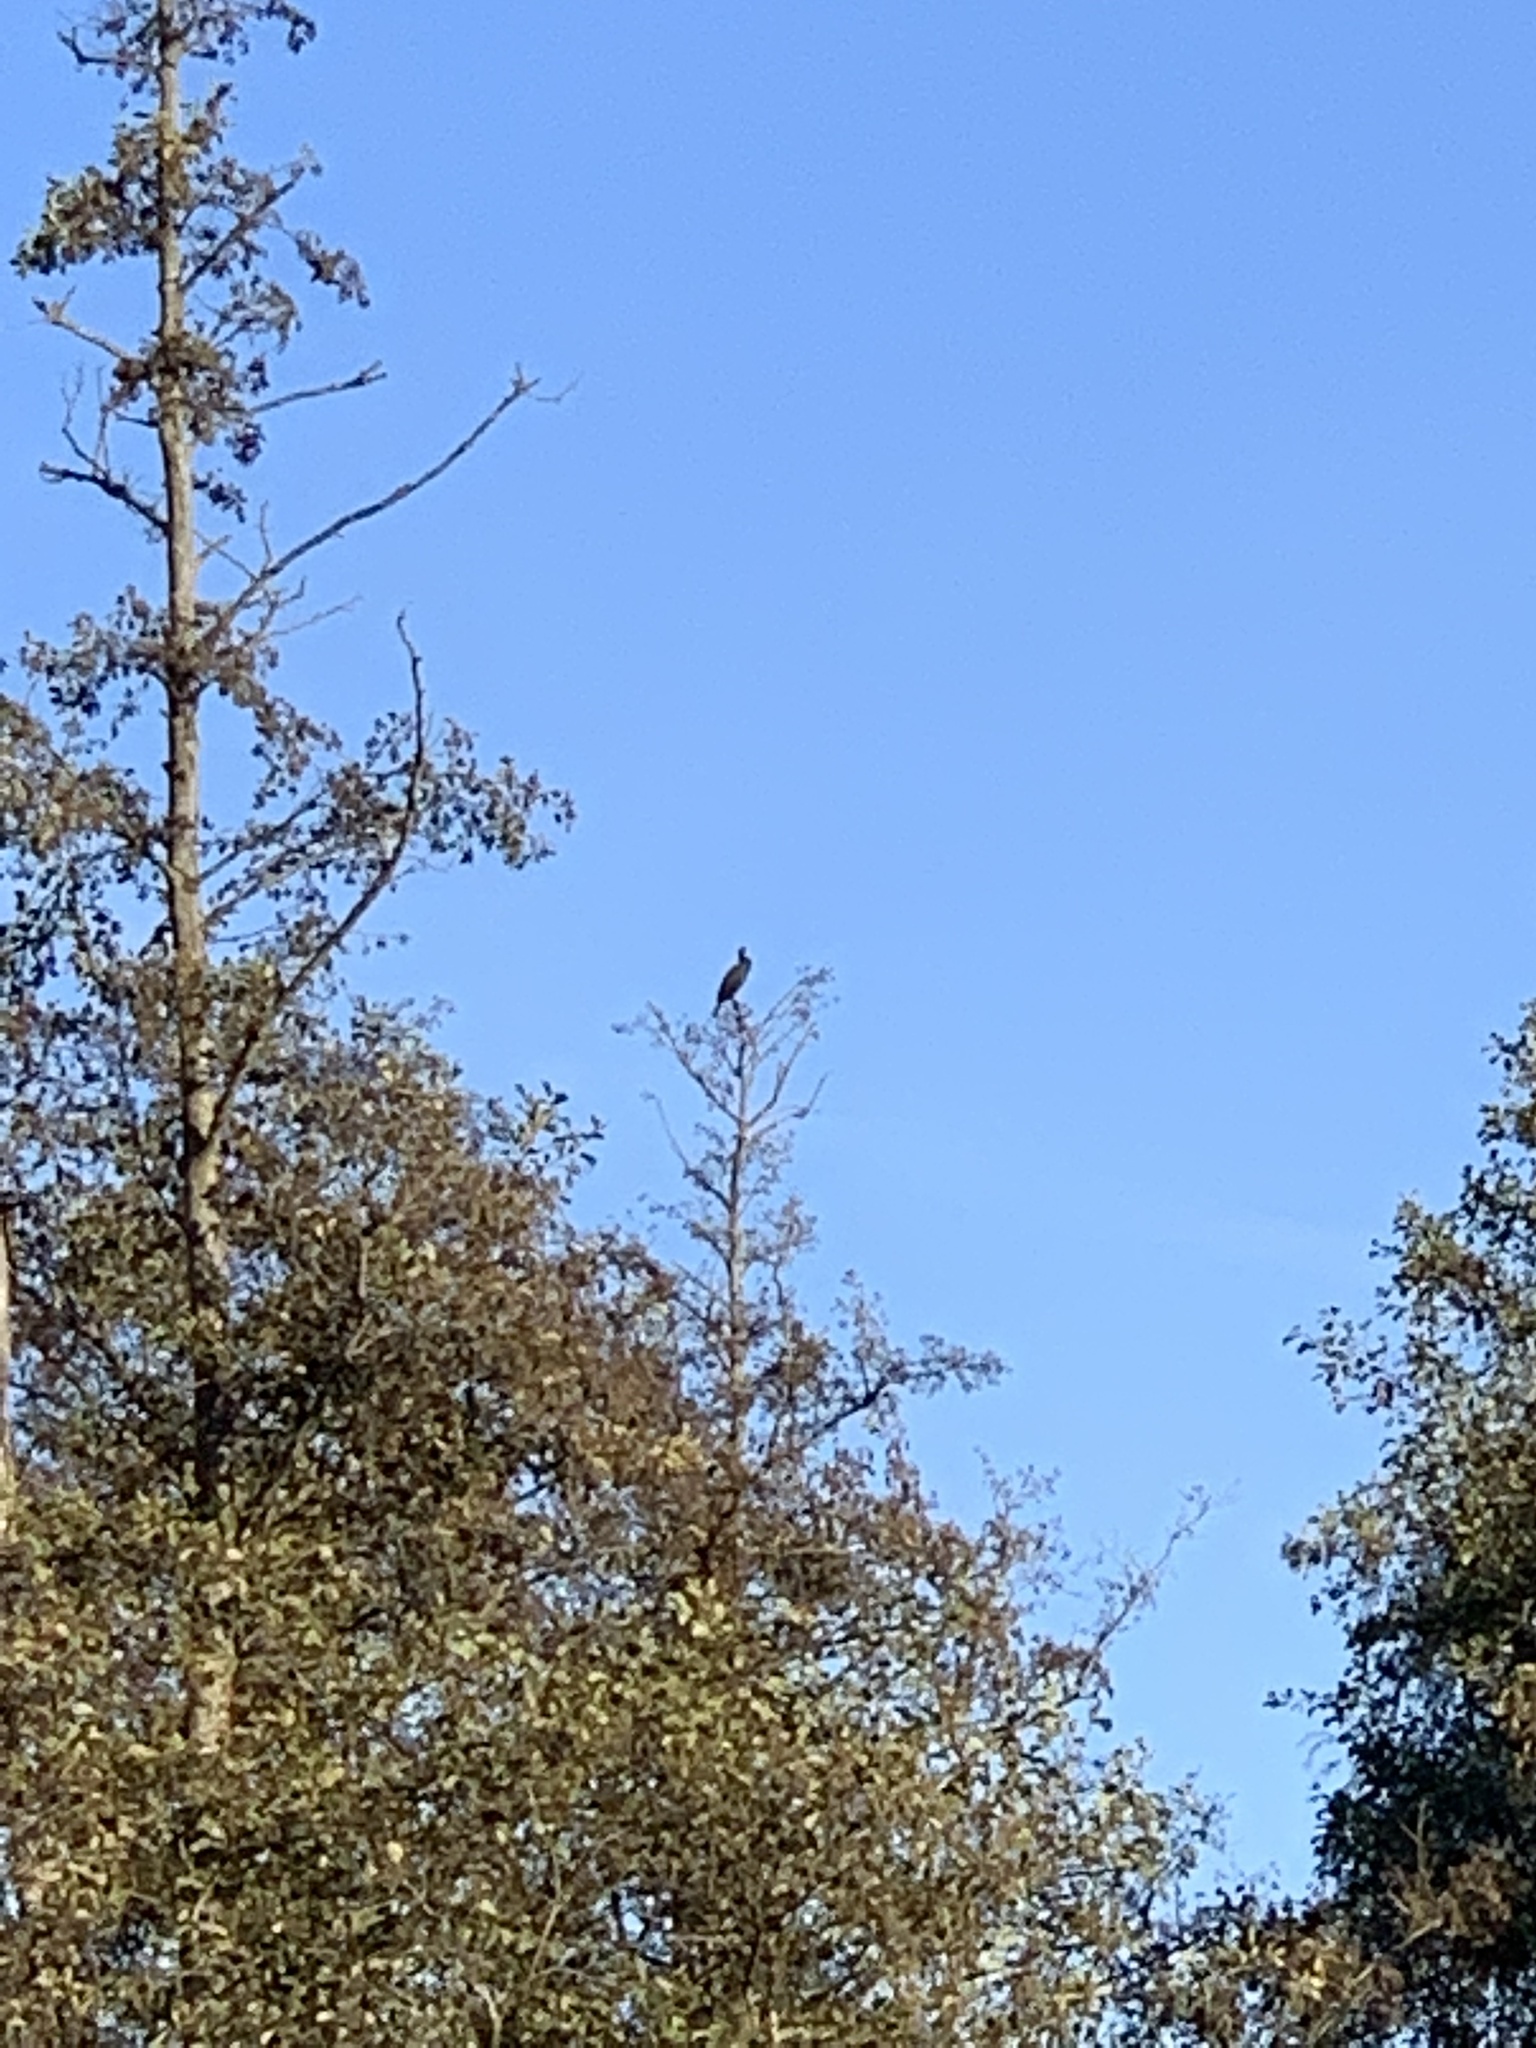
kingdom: Animalia
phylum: Chordata
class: Aves
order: Suliformes
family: Phalacrocoracidae
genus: Phalacrocorax
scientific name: Phalacrocorax carbo
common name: Great cormorant
